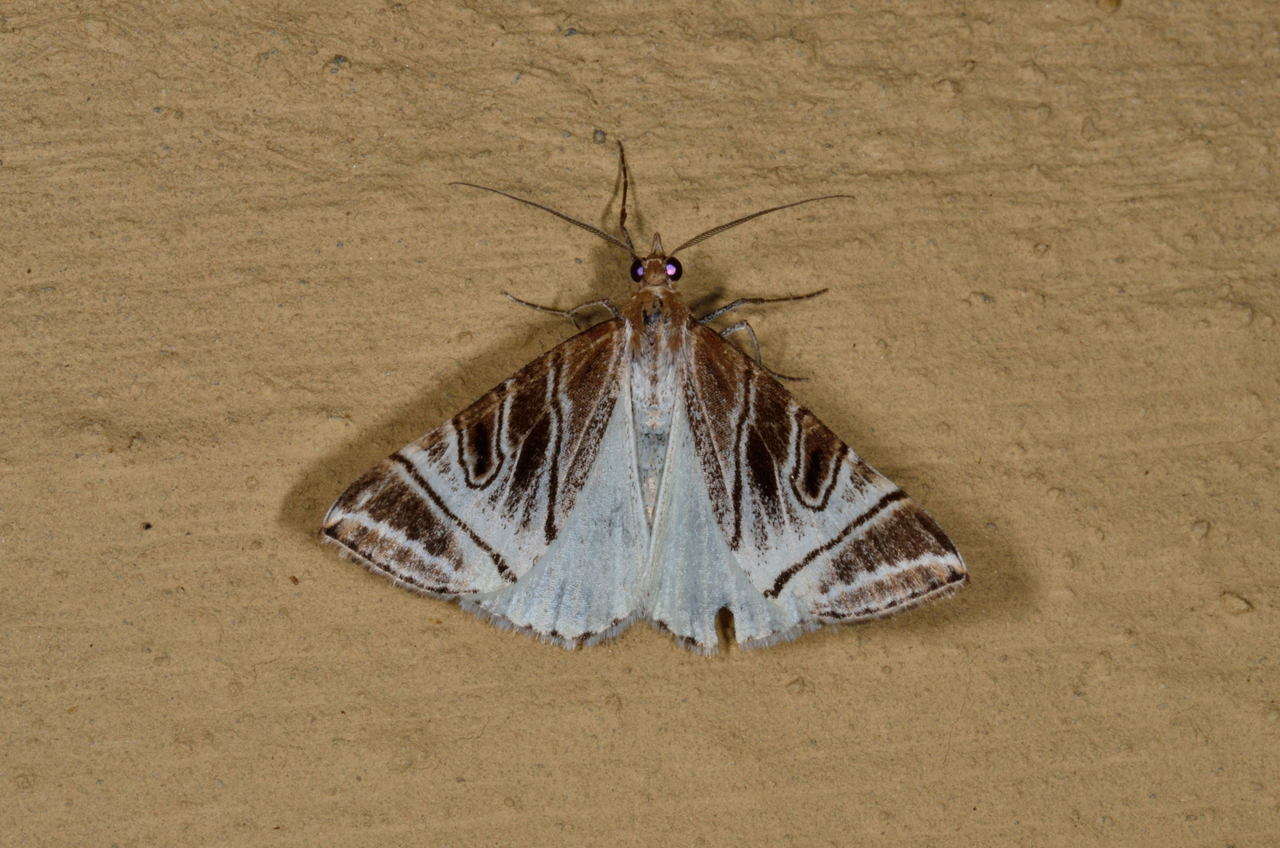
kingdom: Animalia
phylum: Arthropoda
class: Insecta
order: Lepidoptera
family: Geometridae
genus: Phrataria
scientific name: Phrataria replicataria
